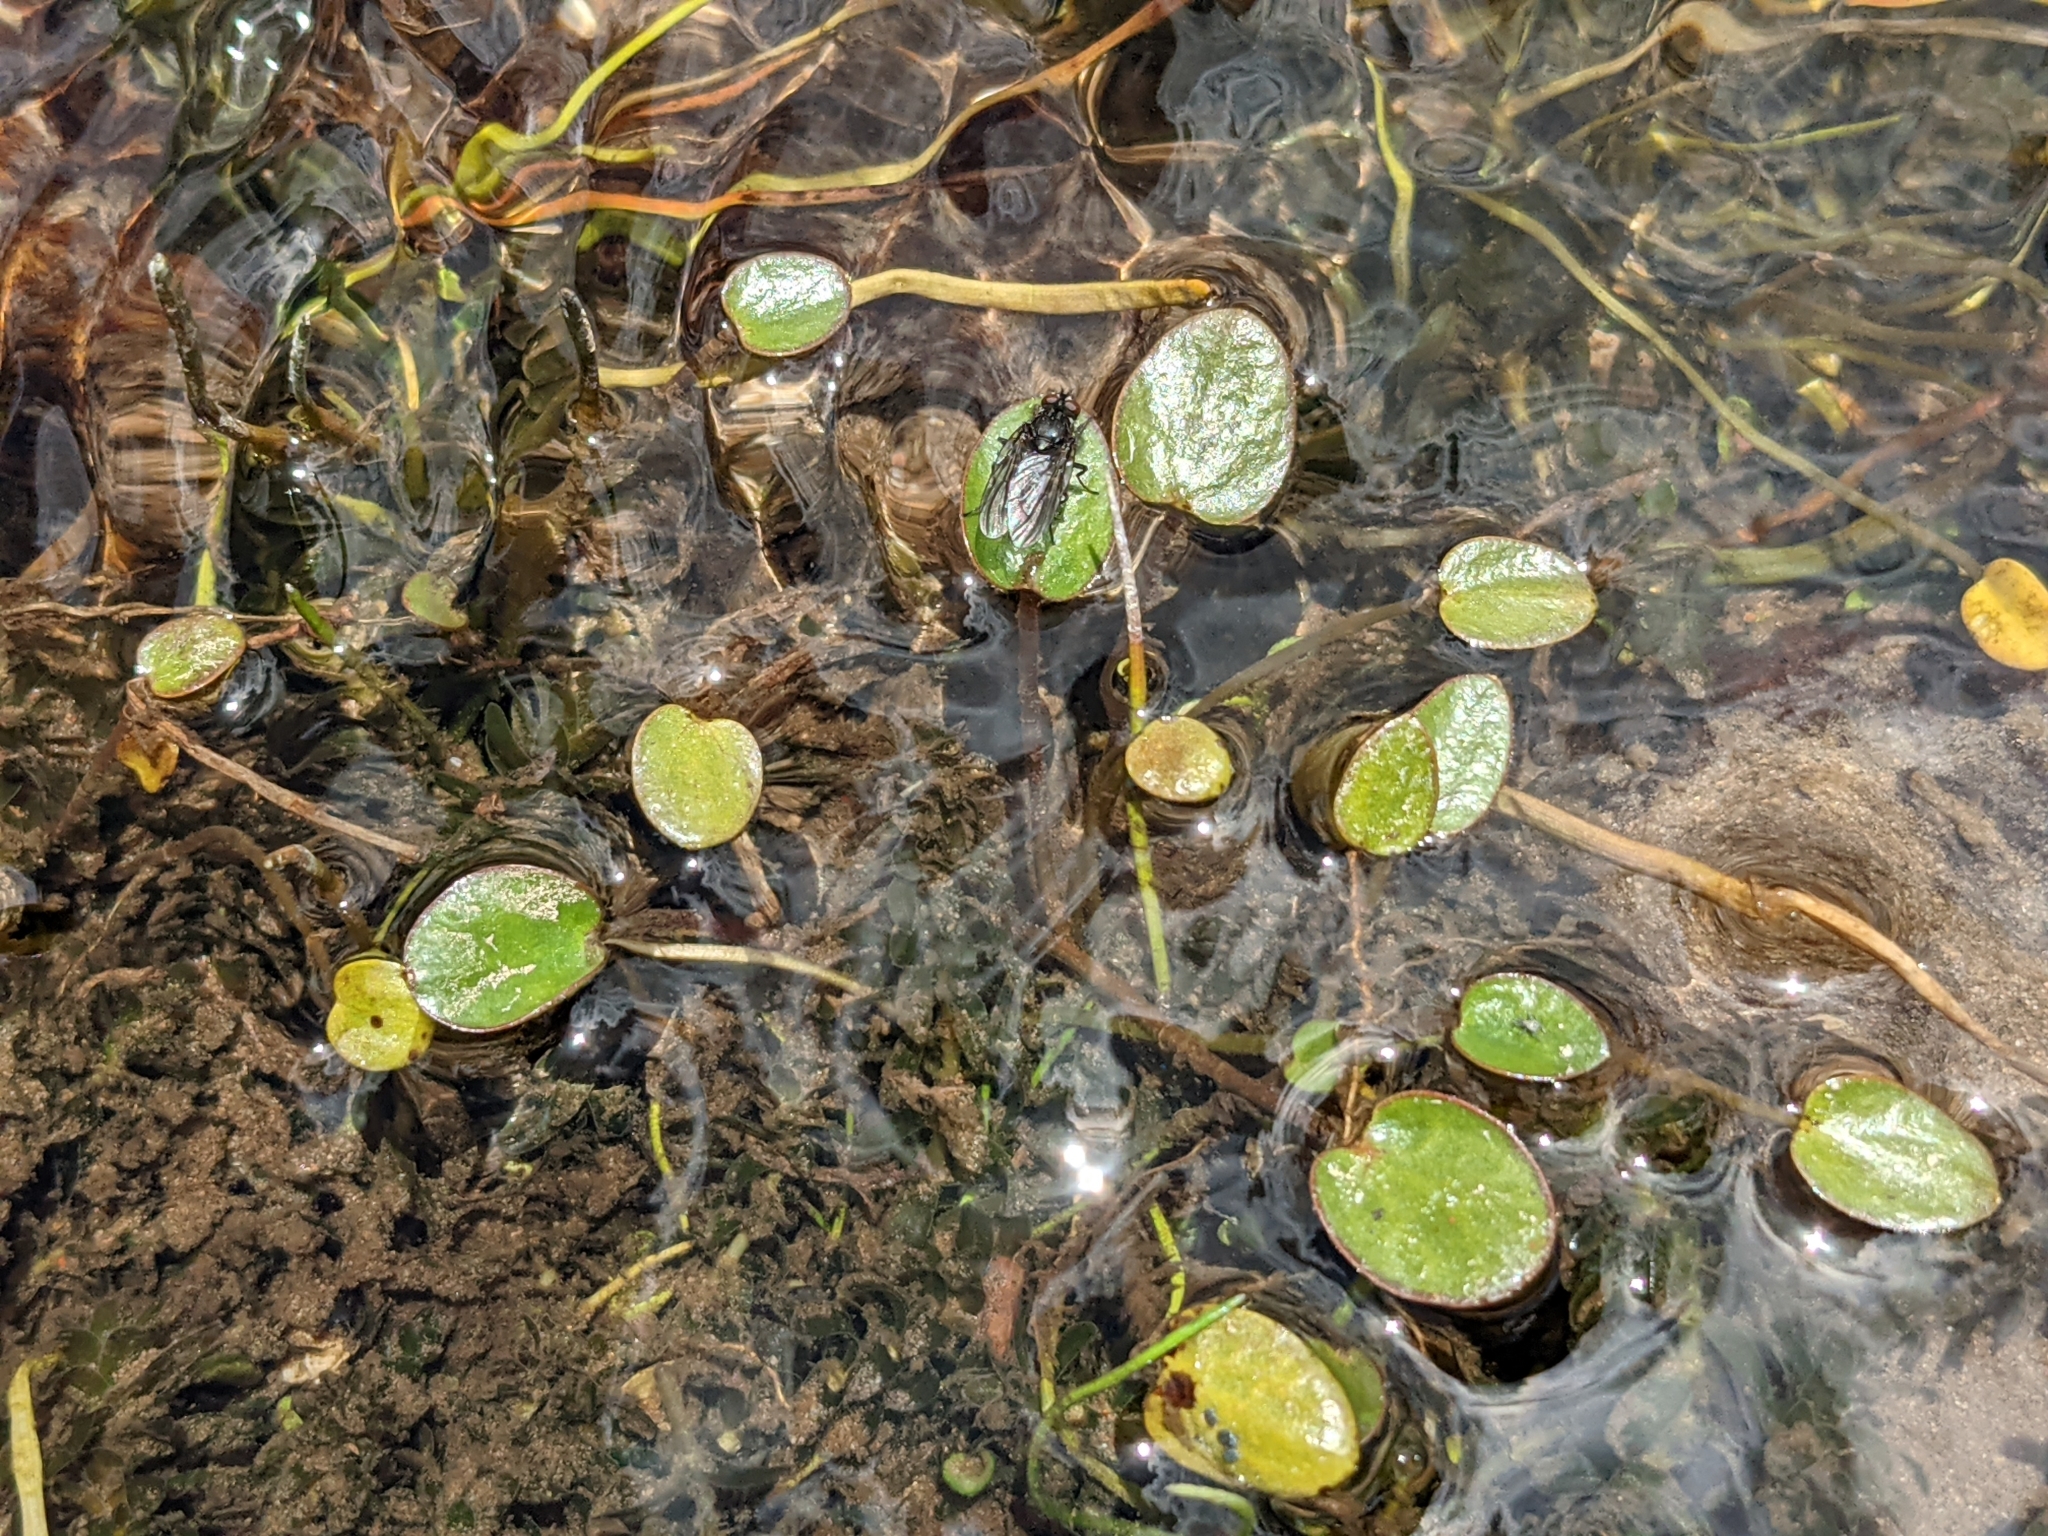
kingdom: Plantae
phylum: Tracheophyta
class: Magnoliopsida
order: Ranunculales
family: Ranunculaceae
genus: Halerpestes
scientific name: Halerpestes uniflora
